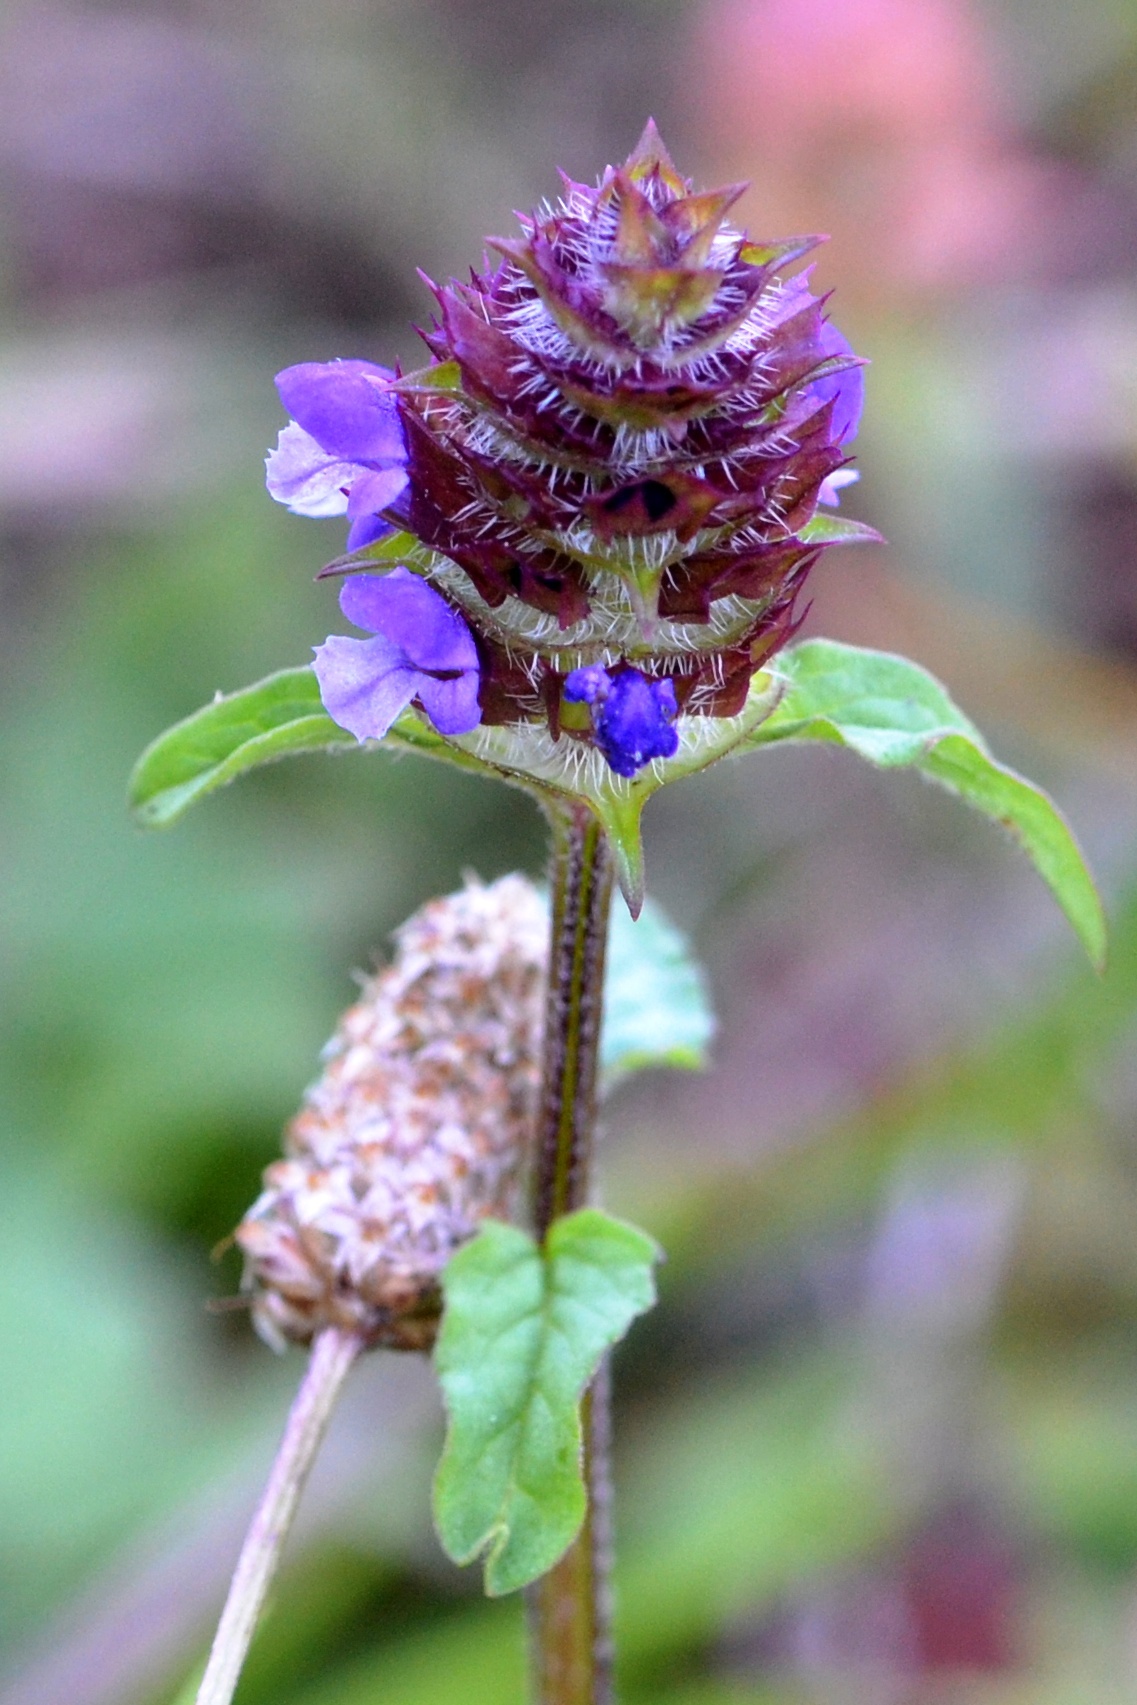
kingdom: Plantae
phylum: Tracheophyta
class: Magnoliopsida
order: Lamiales
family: Lamiaceae
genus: Prunella
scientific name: Prunella vulgaris
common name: Heal-all
